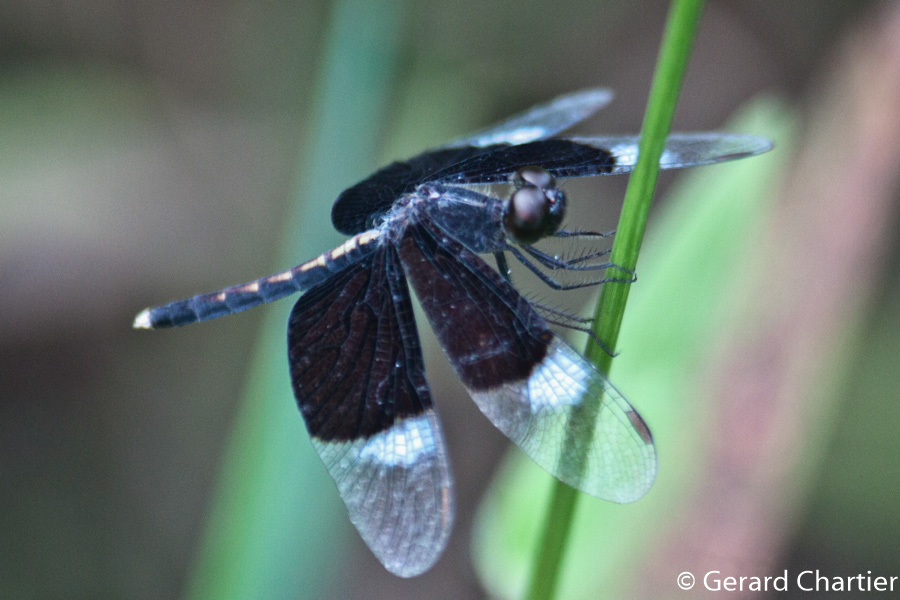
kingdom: Animalia
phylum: Arthropoda
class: Insecta
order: Odonata
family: Libellulidae
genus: Neurothemis
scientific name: Neurothemis tullia
